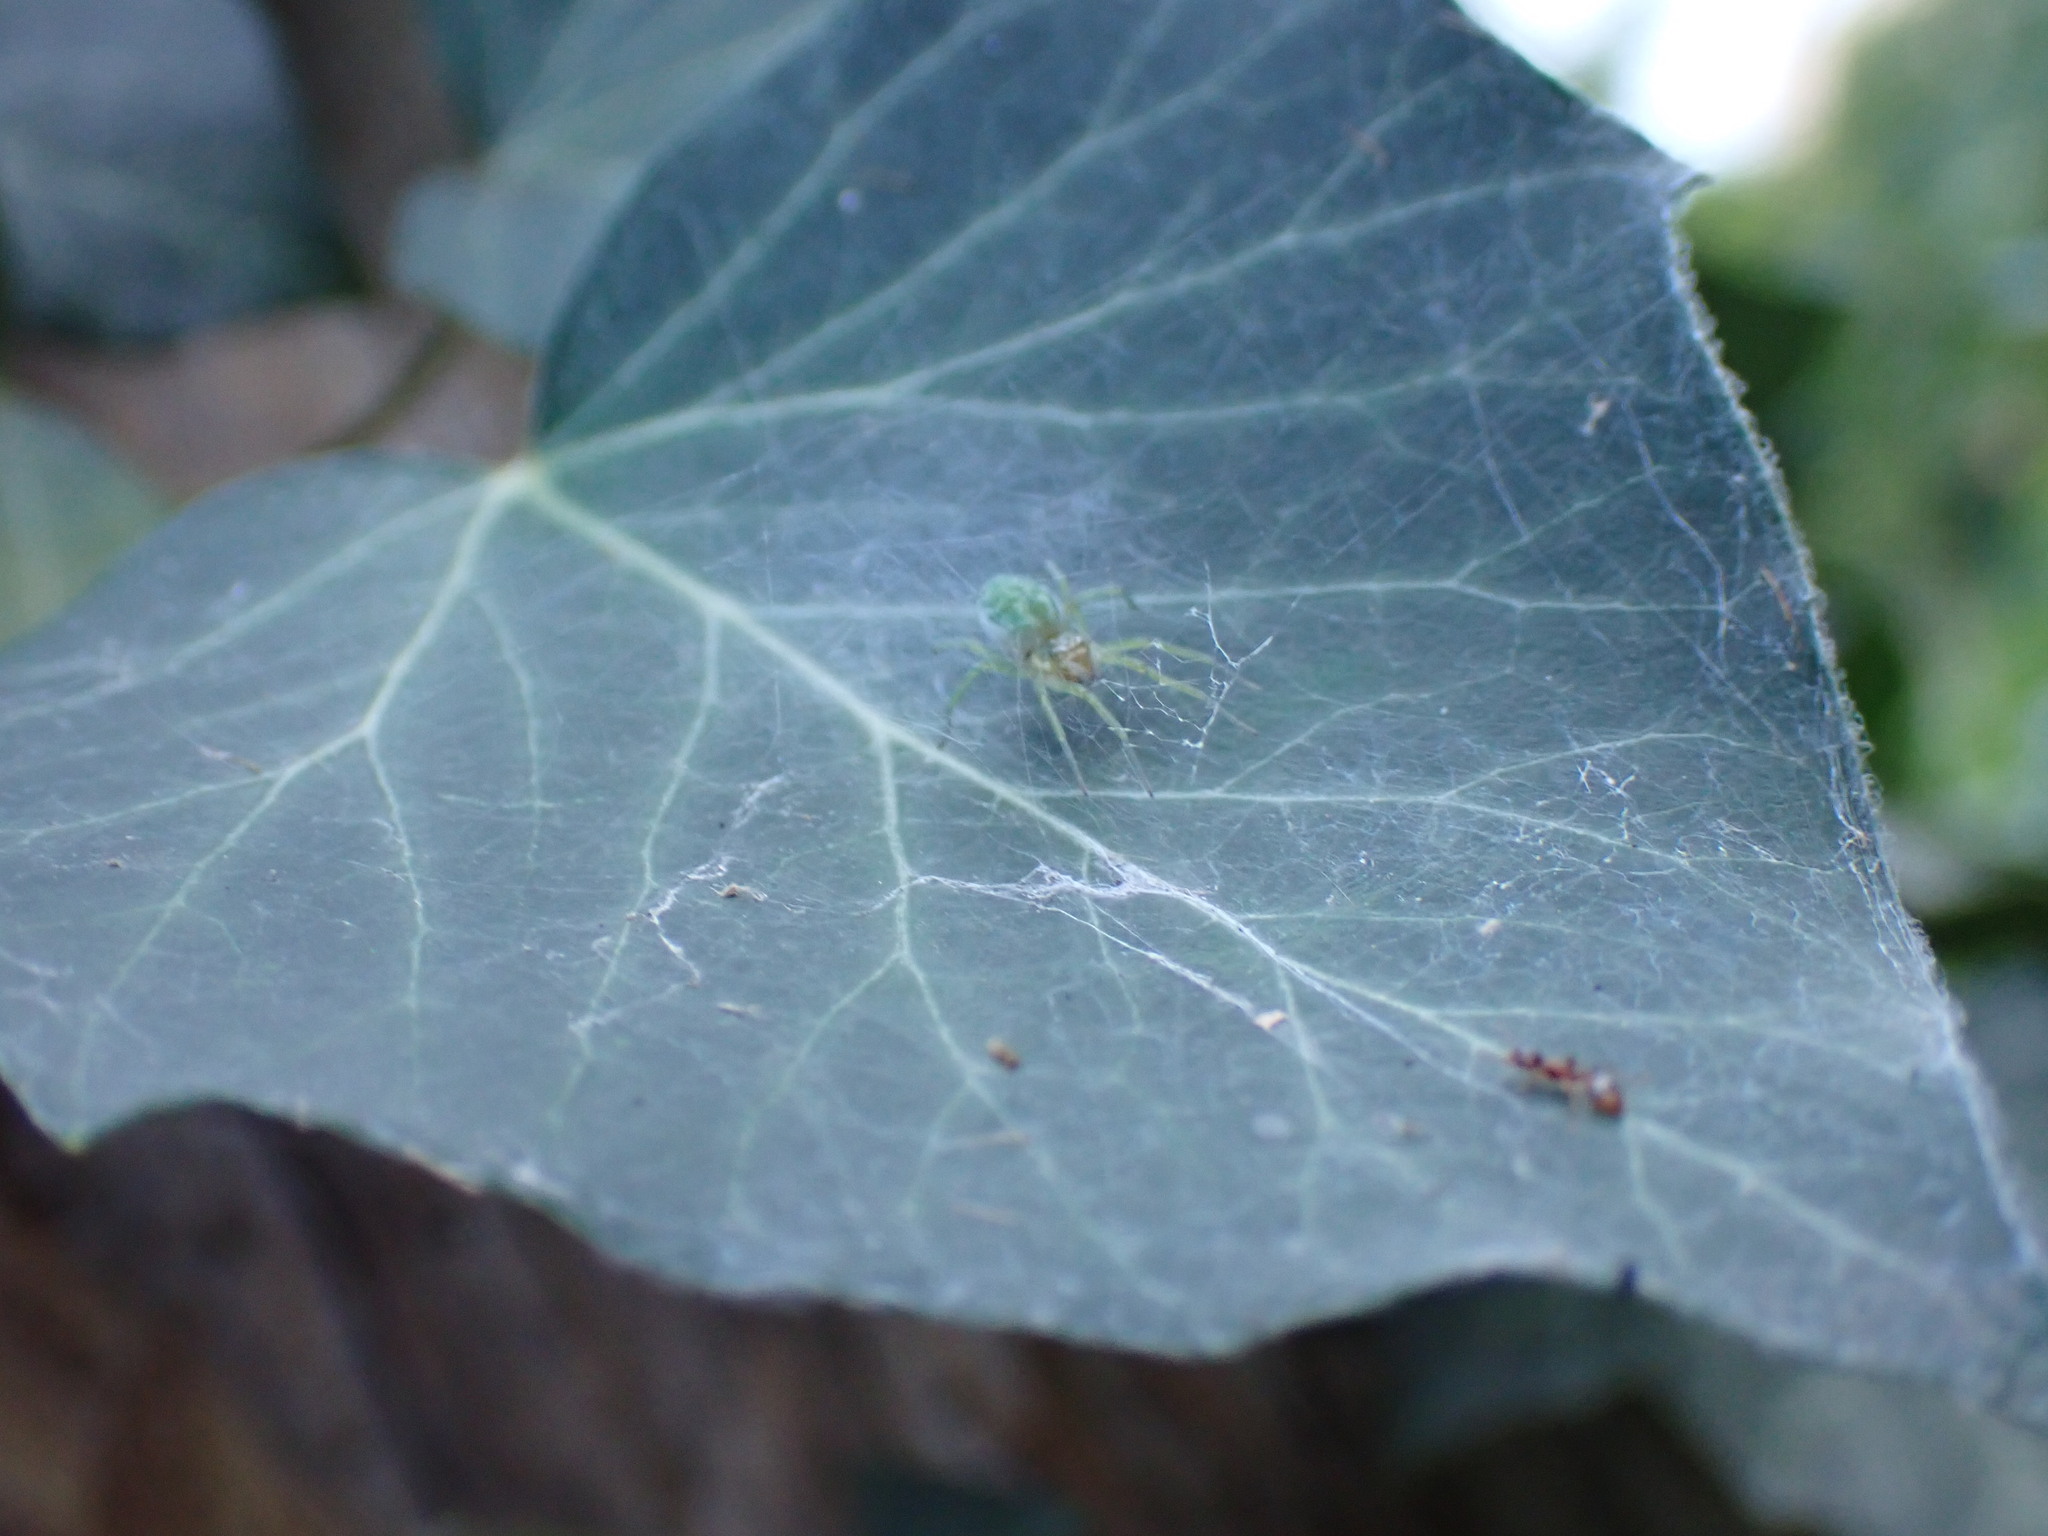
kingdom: Animalia
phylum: Arthropoda
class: Arachnida
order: Araneae
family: Dictynidae
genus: Nigma
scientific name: Nigma walckenaeri
